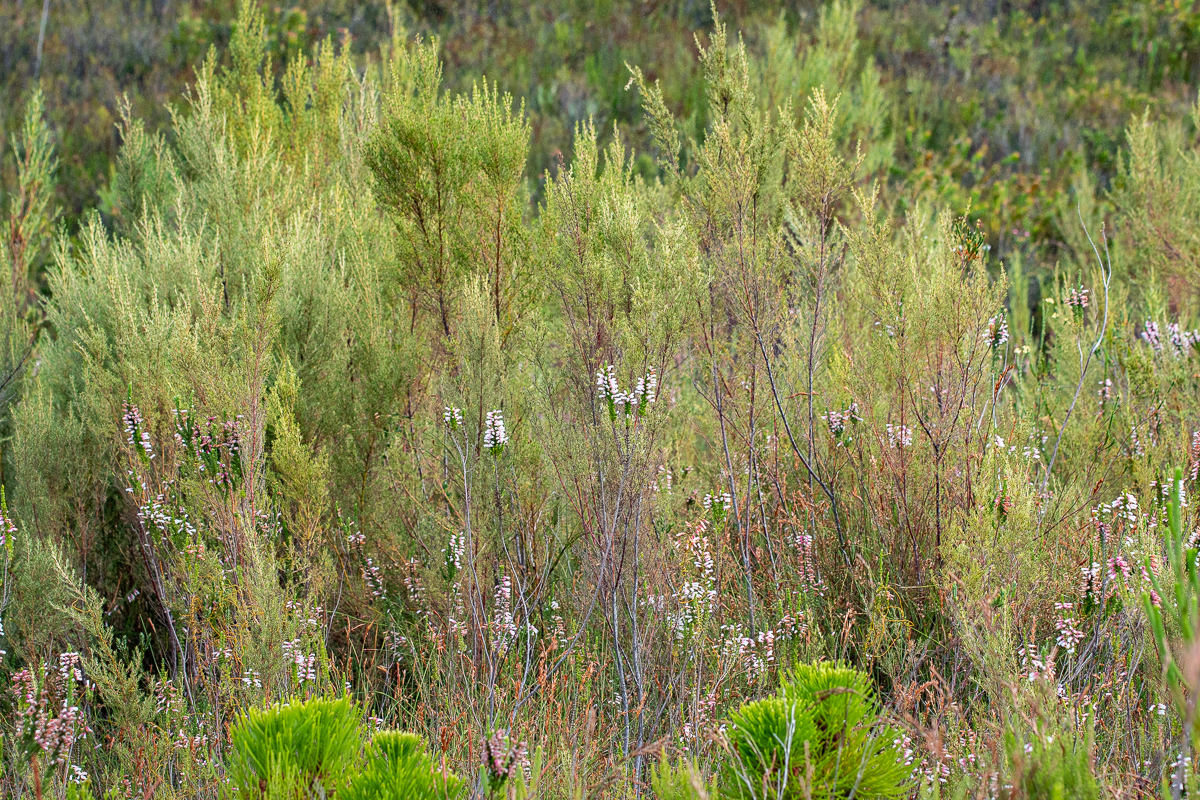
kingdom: Plantae
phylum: Tracheophyta
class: Magnoliopsida
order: Cornales
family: Grubbiaceae
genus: Grubbia
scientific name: Grubbia rosmarinifolia
